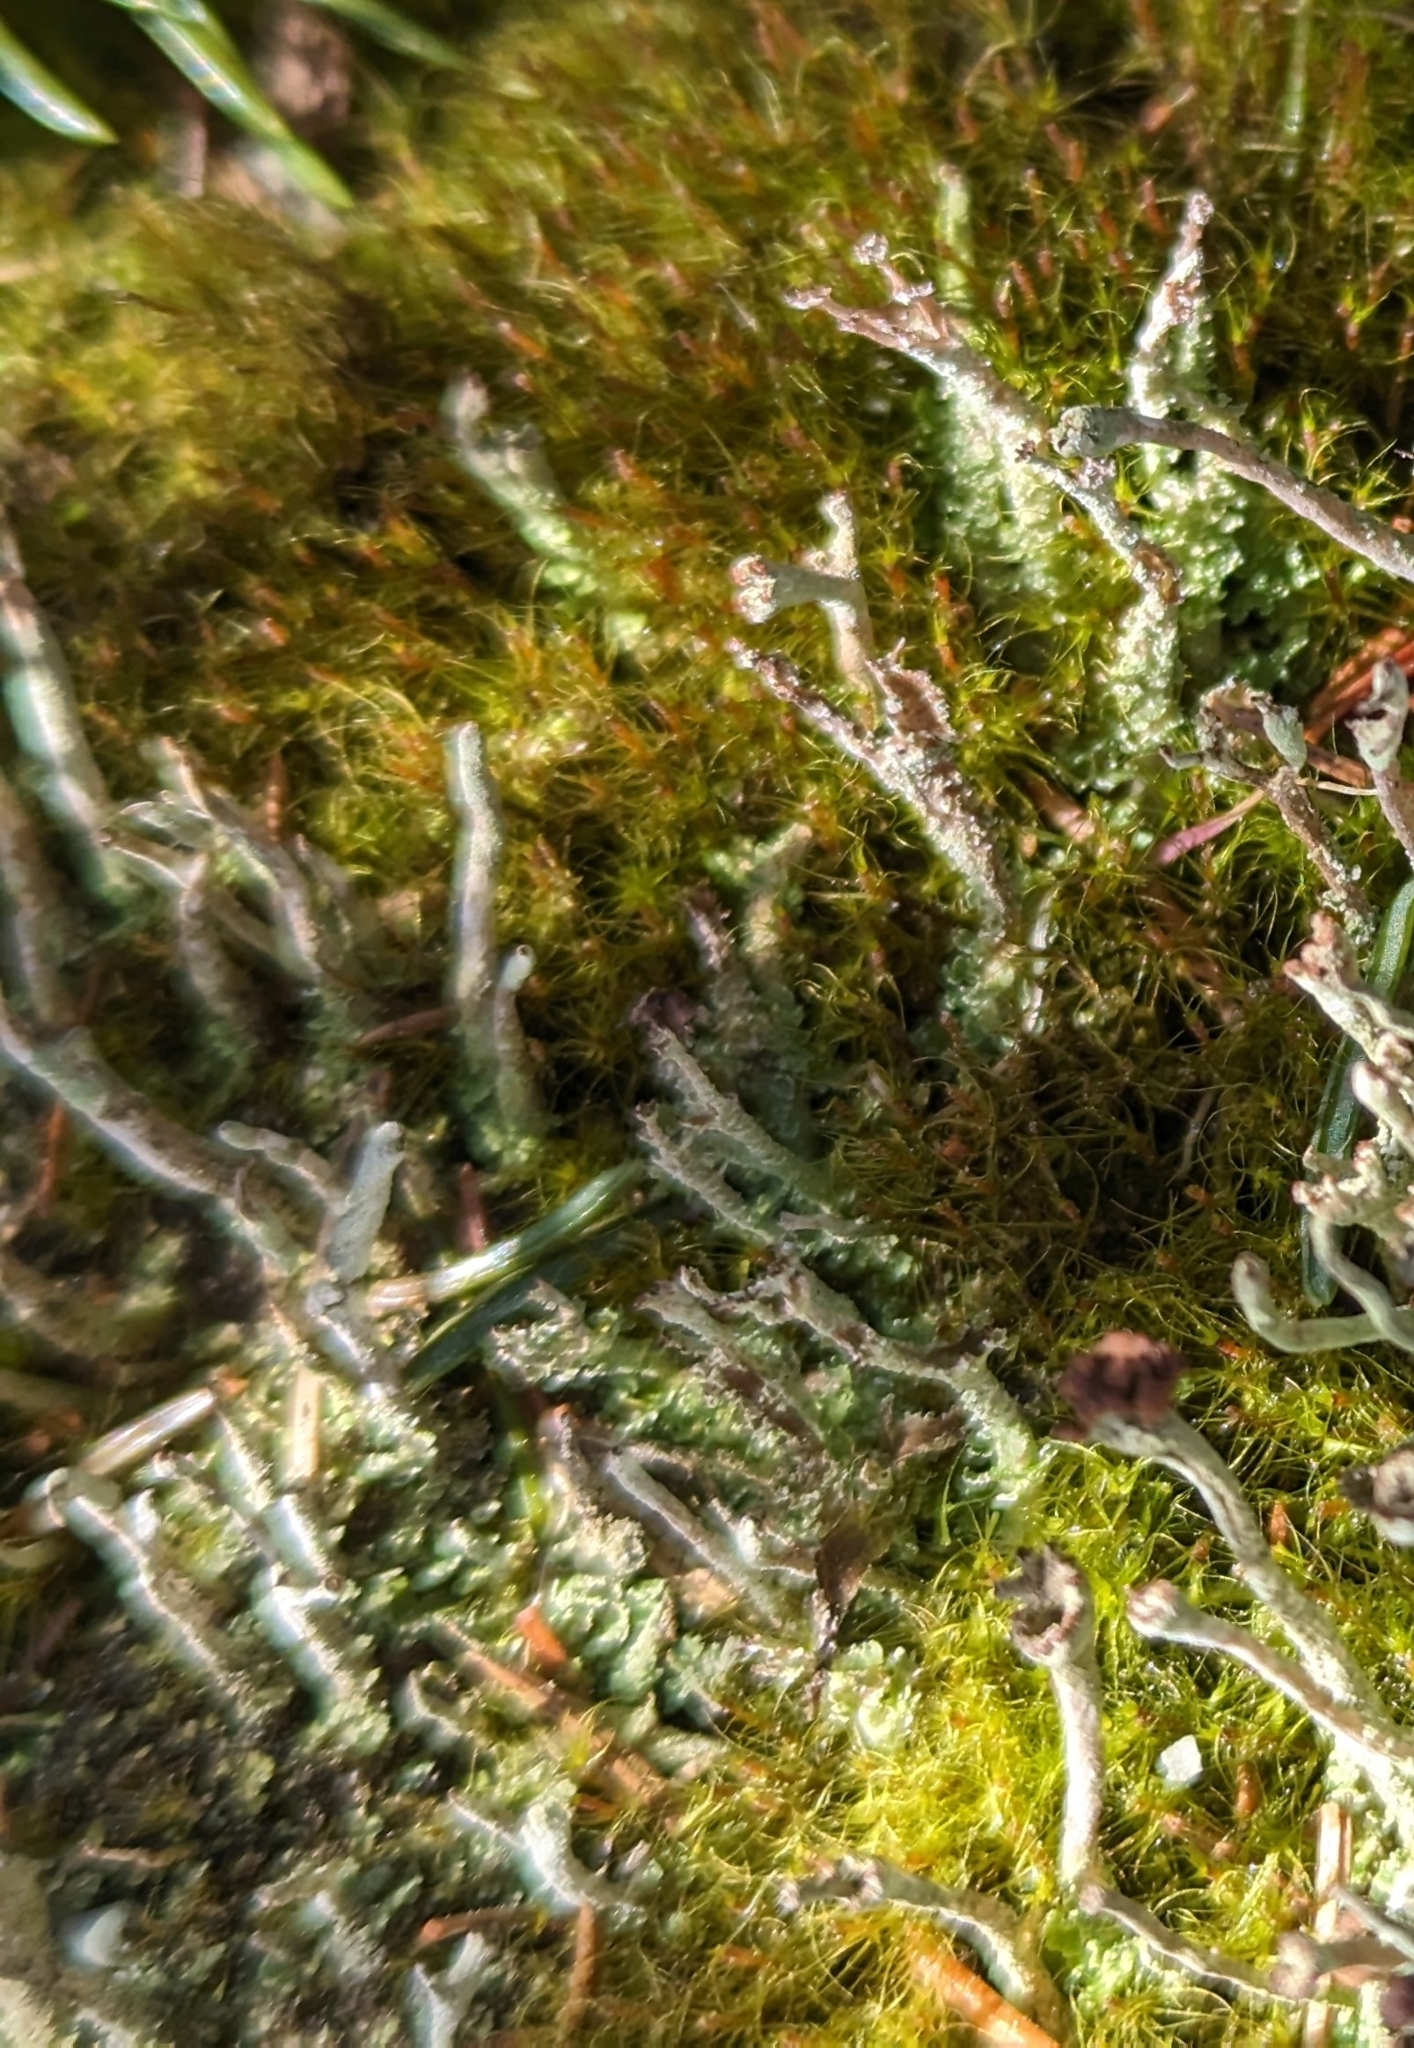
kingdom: Fungi
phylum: Ascomycota
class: Lecanoromycetes
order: Lecanorales
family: Cladoniaceae
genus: Cladonia
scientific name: Cladonia cenotea
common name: Powdered funnel lichen
